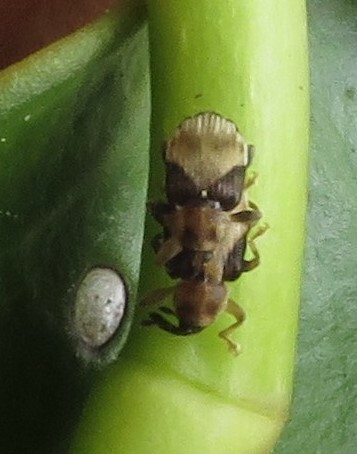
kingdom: Animalia
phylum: Arthropoda
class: Insecta
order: Coleoptera
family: Curculionidae
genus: Peristoreus
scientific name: Peristoreus
